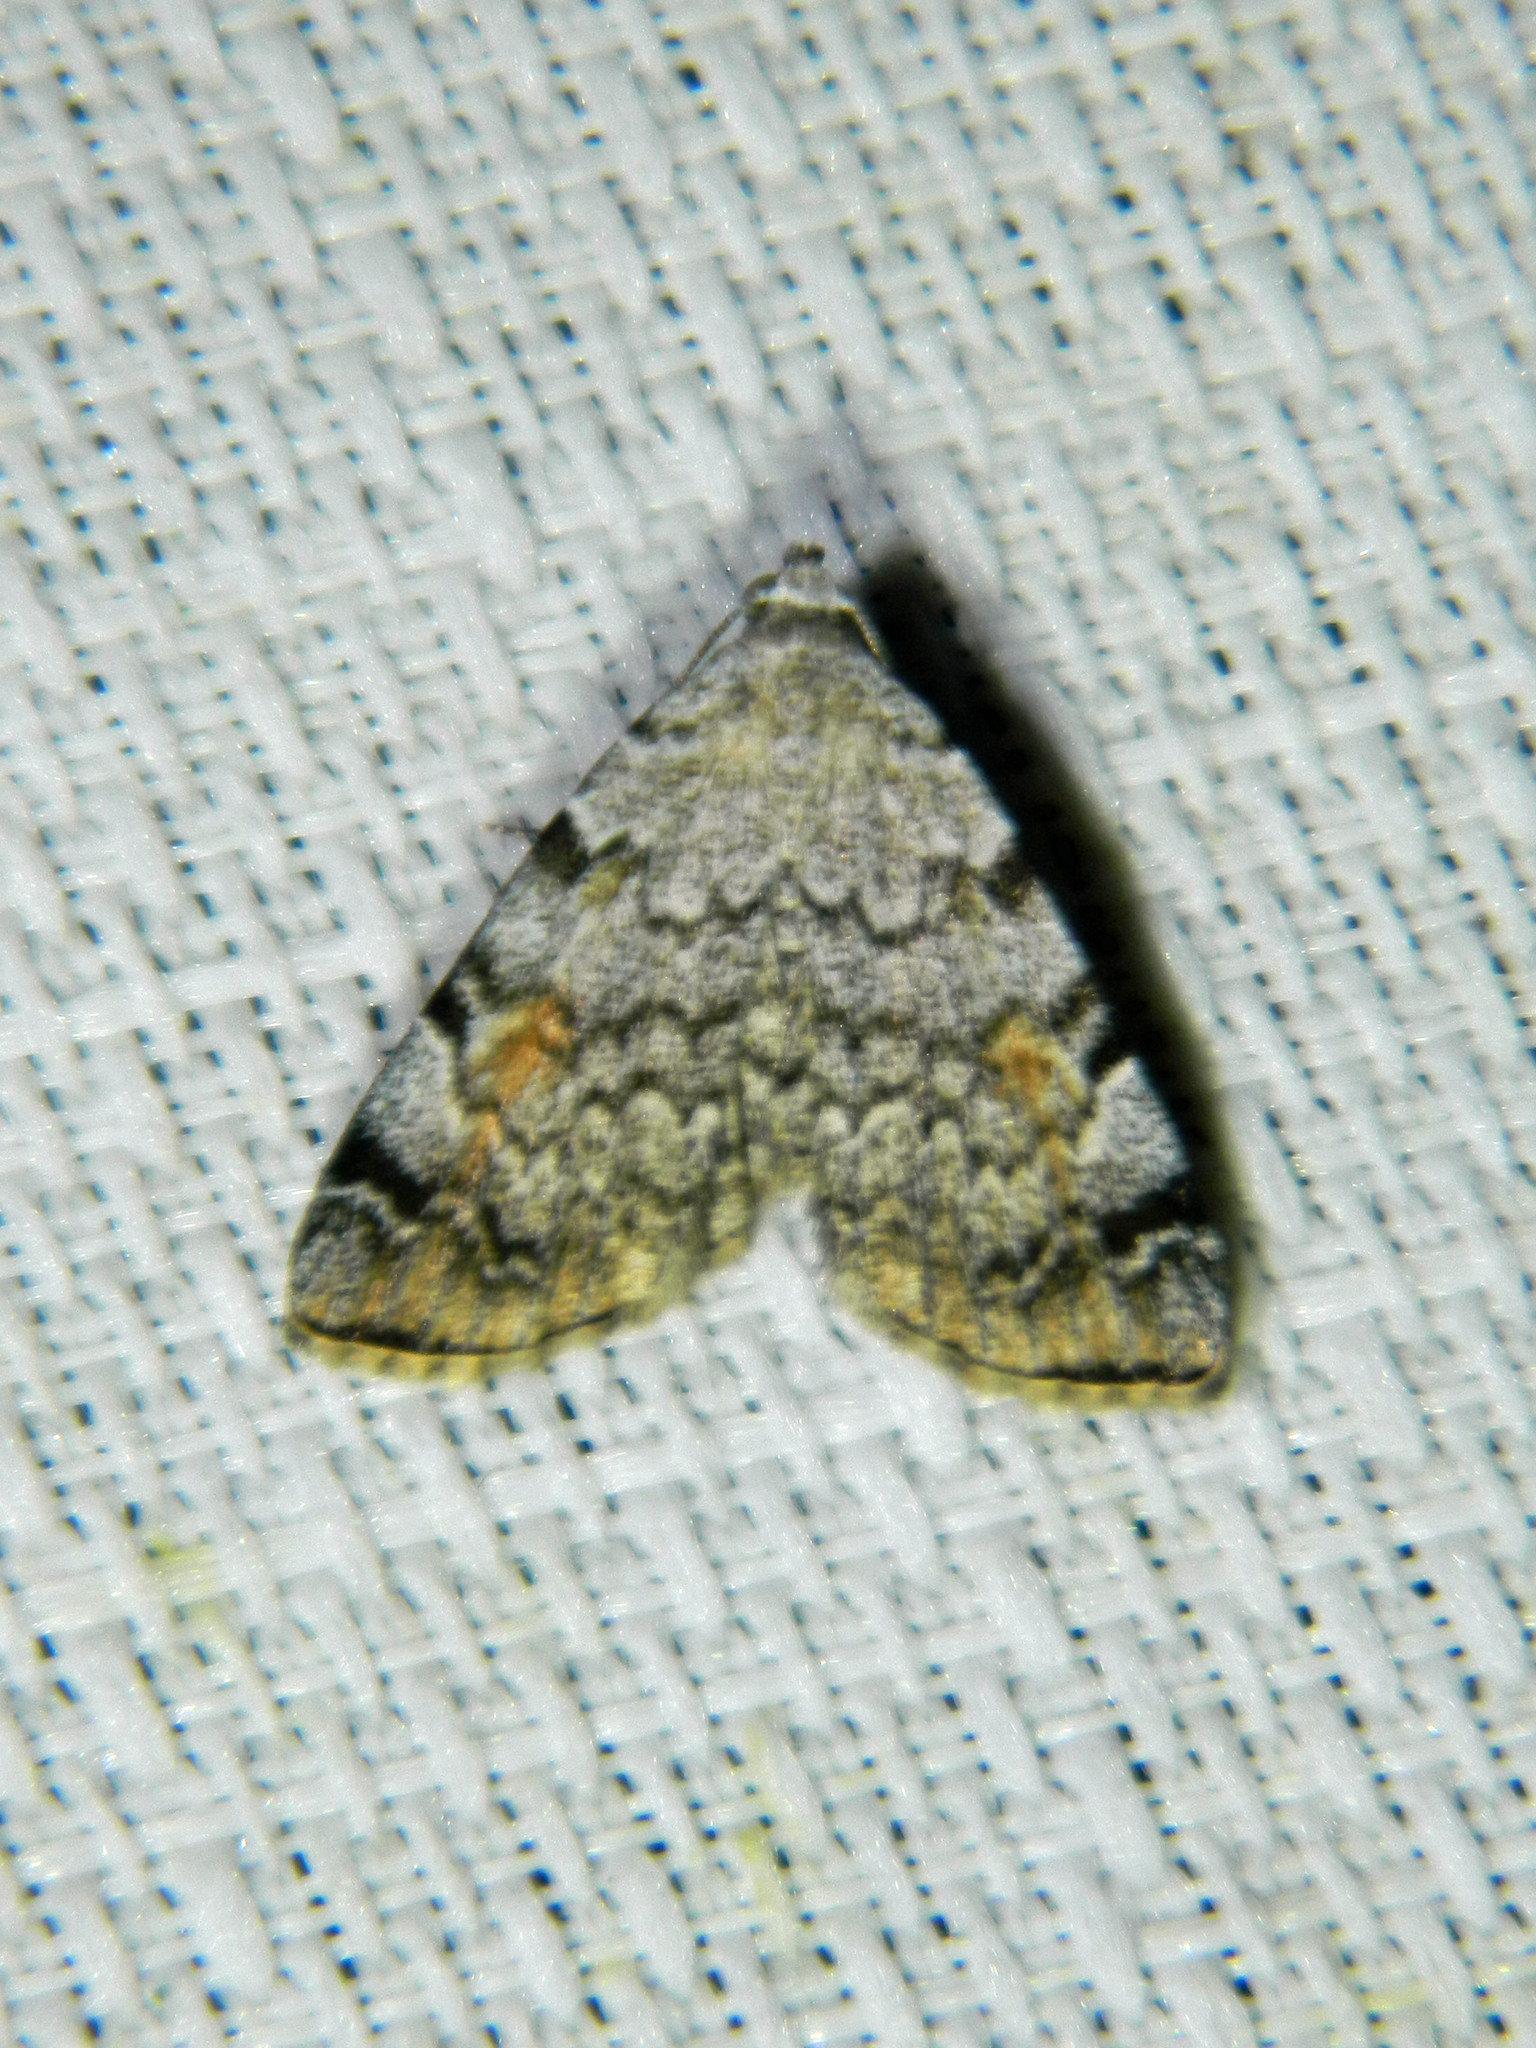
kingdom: Animalia
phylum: Arthropoda
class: Insecta
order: Lepidoptera
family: Erebidae
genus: Idia
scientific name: Idia americalis
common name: American idia moth
